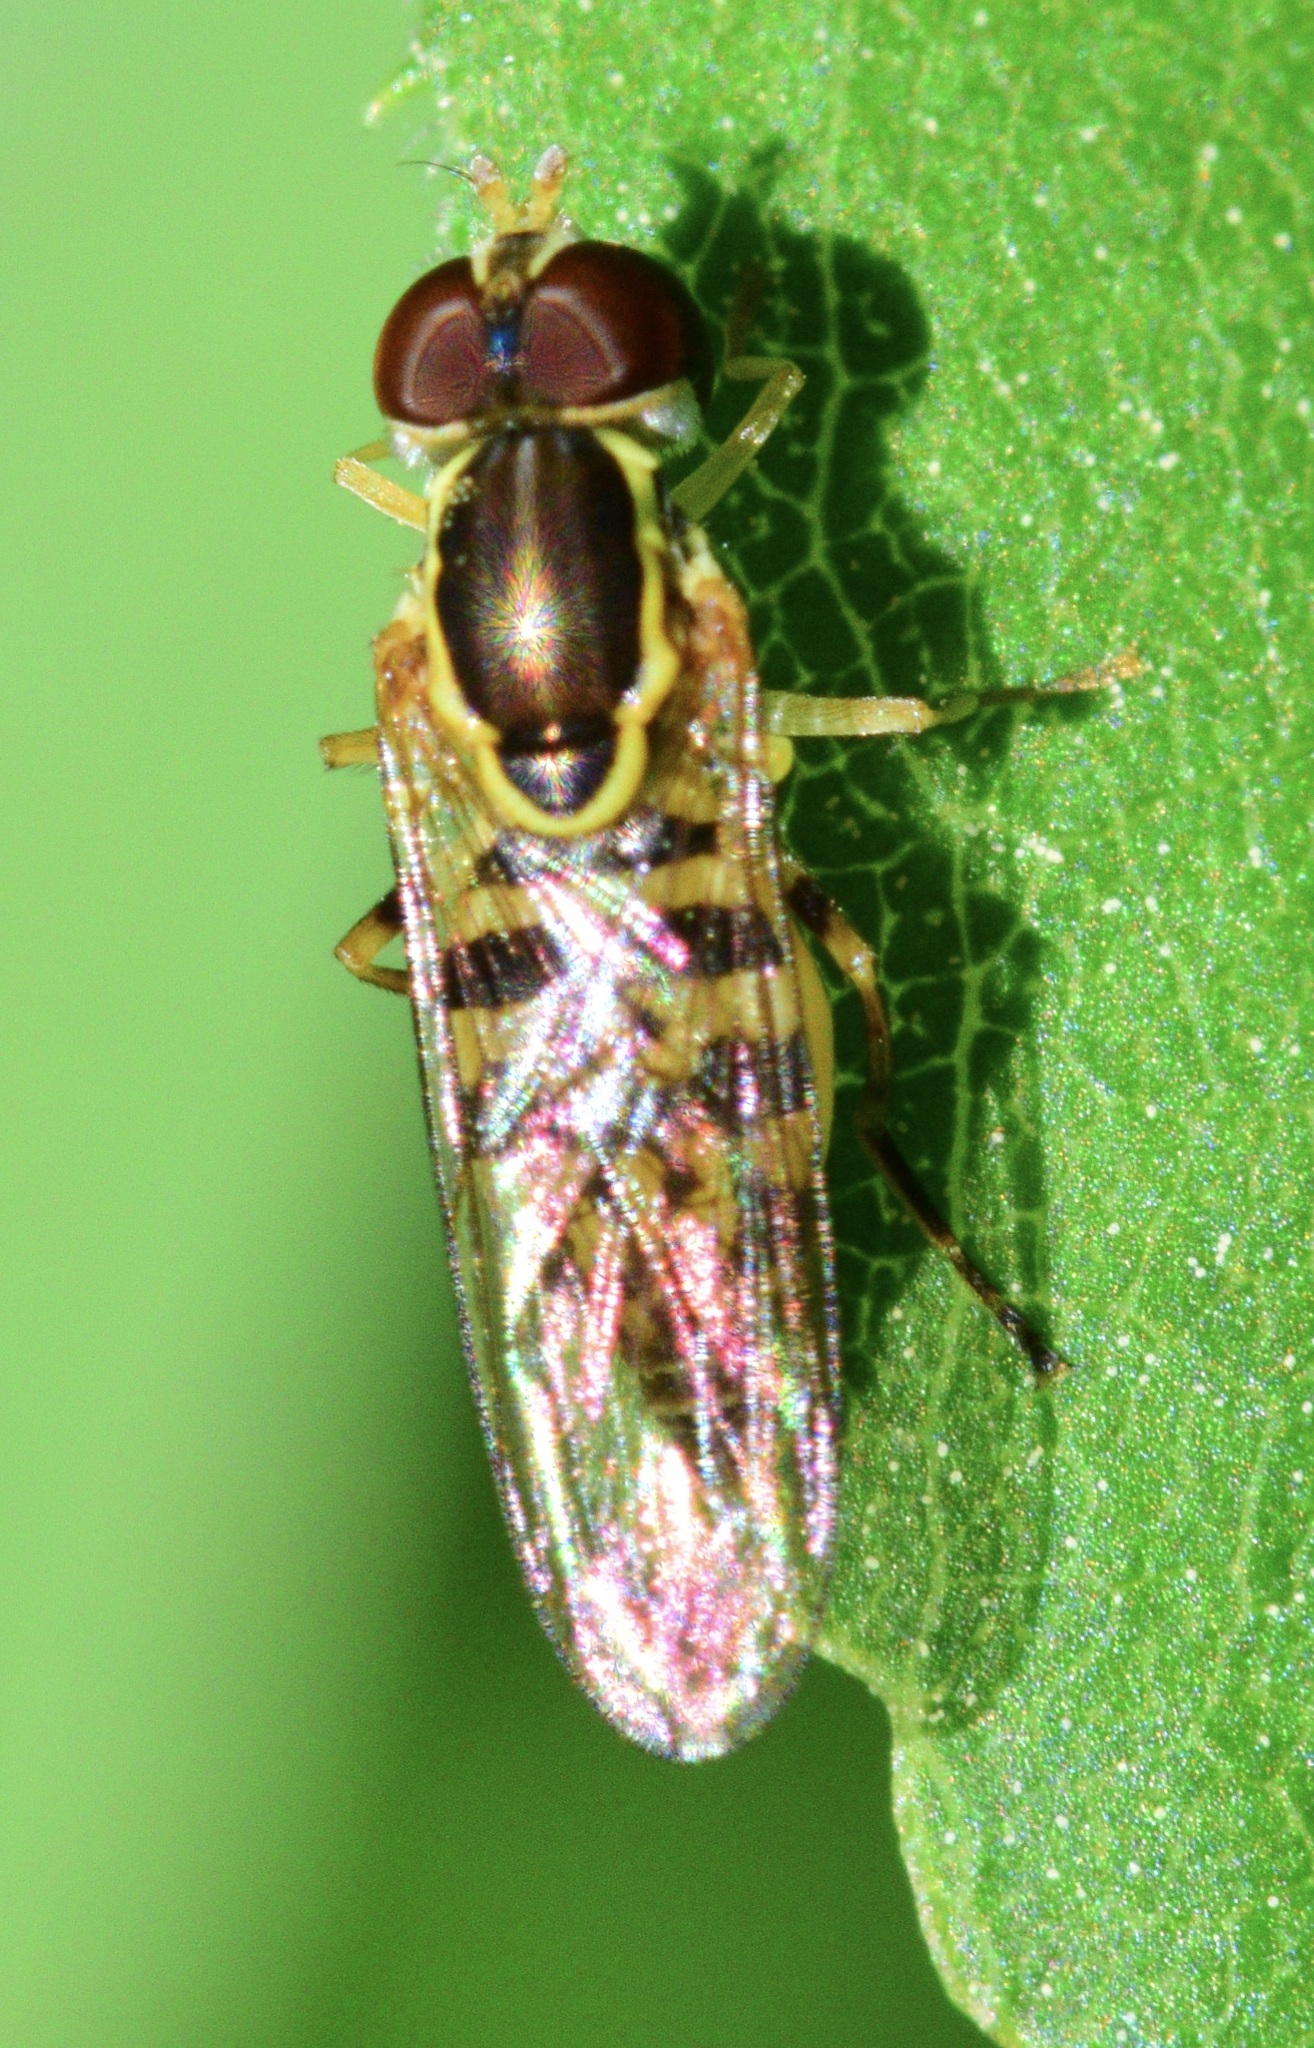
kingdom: Animalia
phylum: Arthropoda
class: Insecta
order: Diptera
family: Syrphidae
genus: Toxomerus
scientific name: Toxomerus geminatus
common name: Eastern calligrapher
